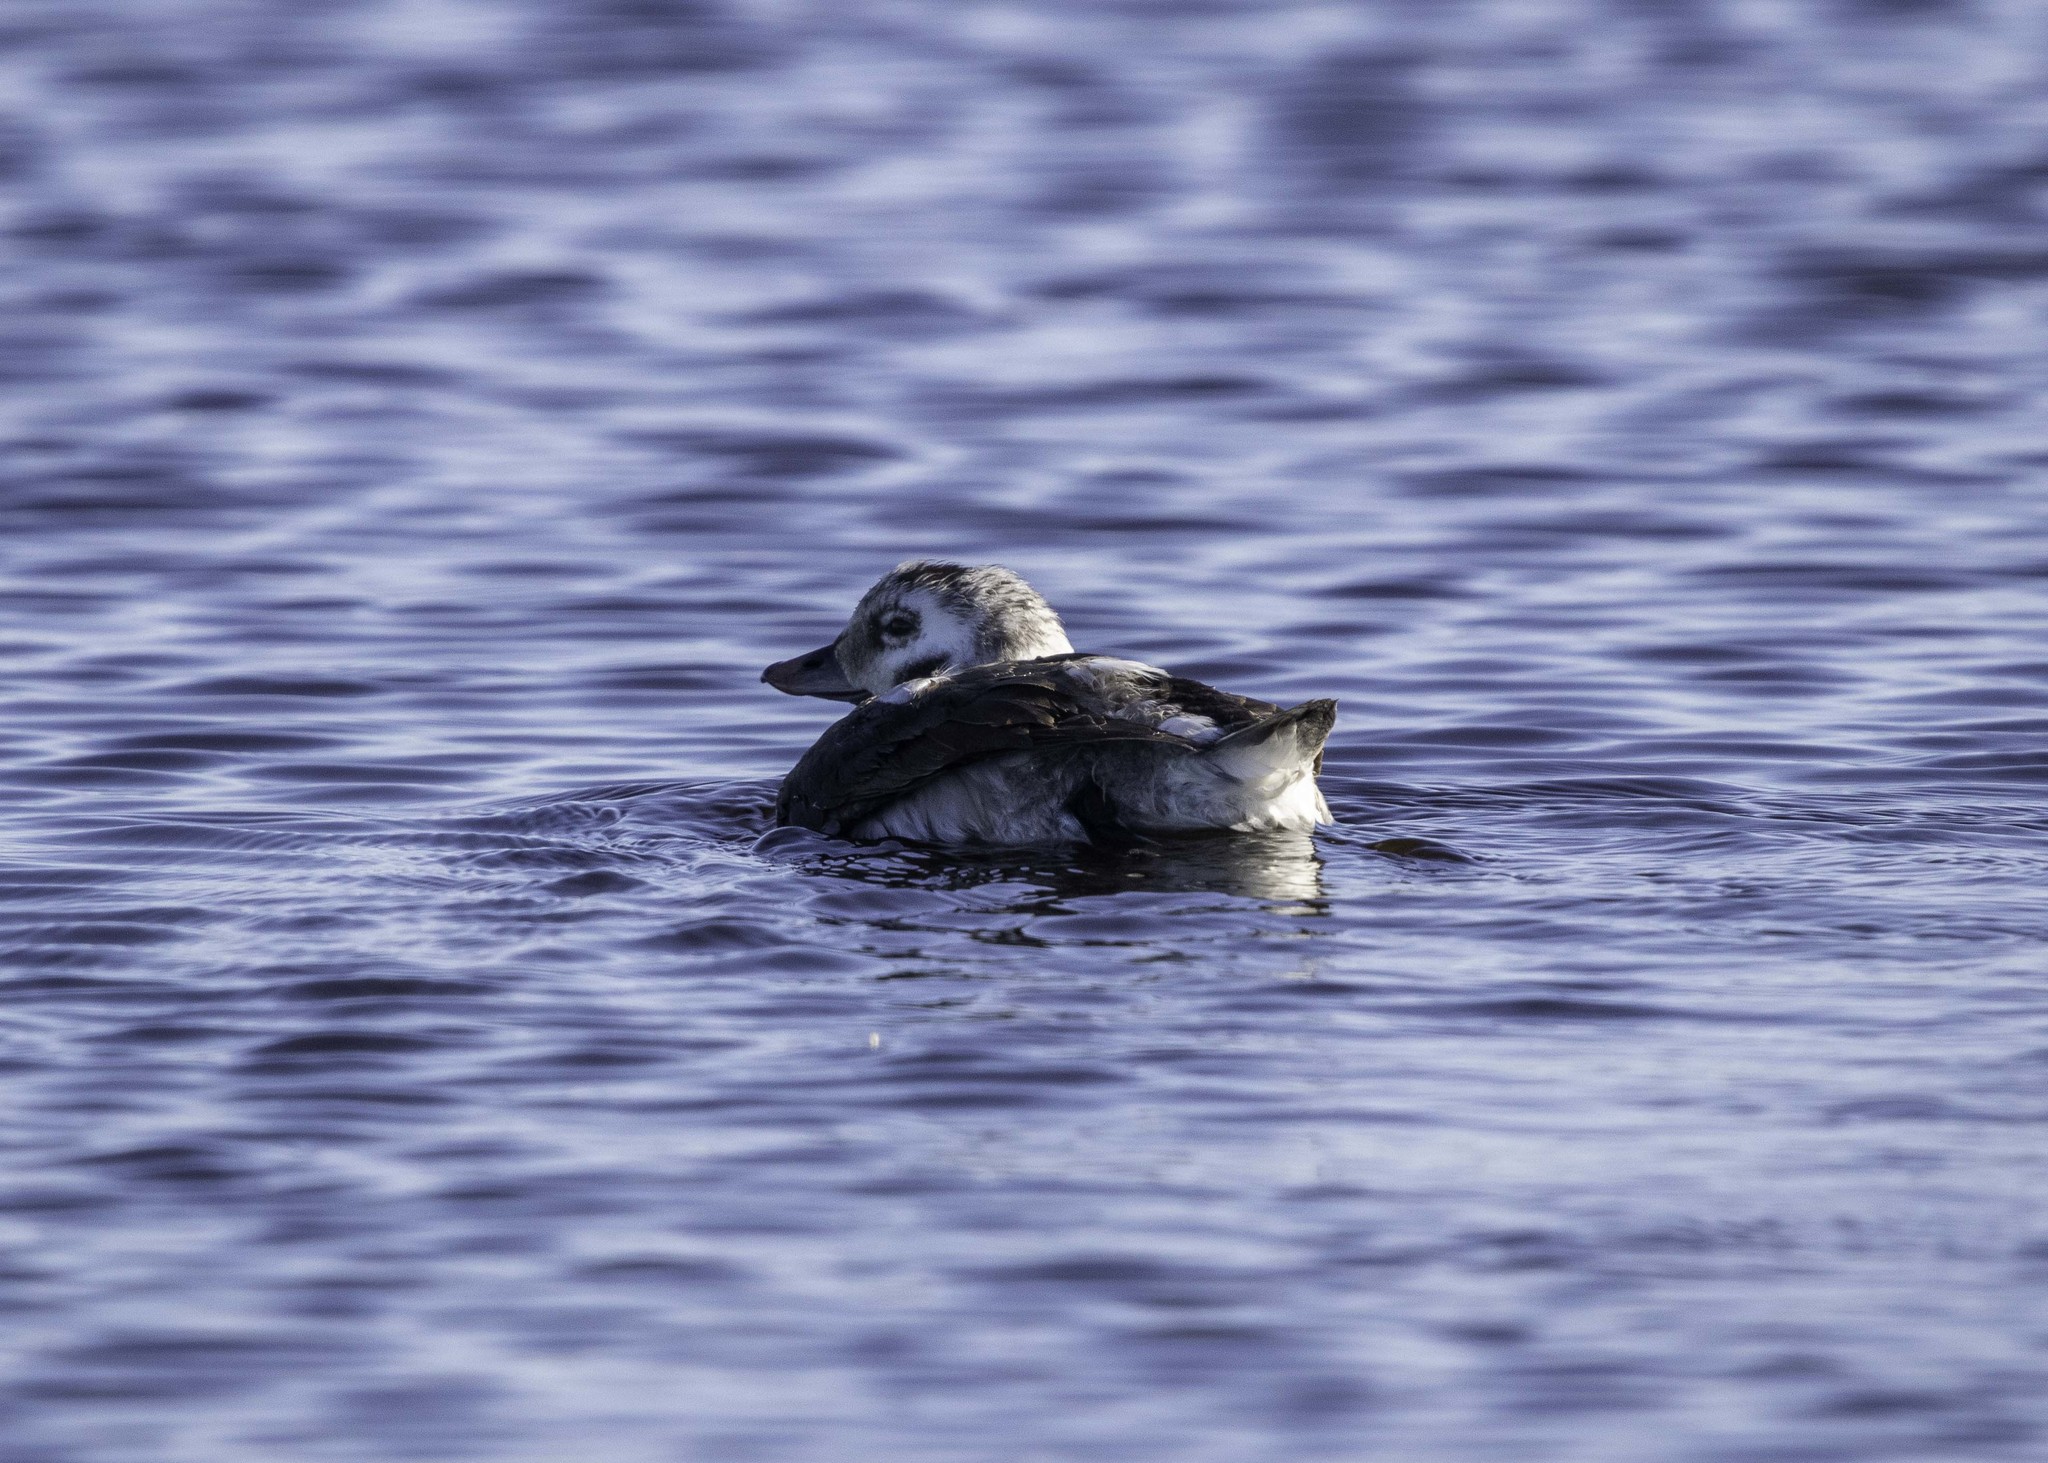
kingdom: Animalia
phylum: Chordata
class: Aves
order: Anseriformes
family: Anatidae
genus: Clangula
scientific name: Clangula hyemalis
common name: Long-tailed duck
